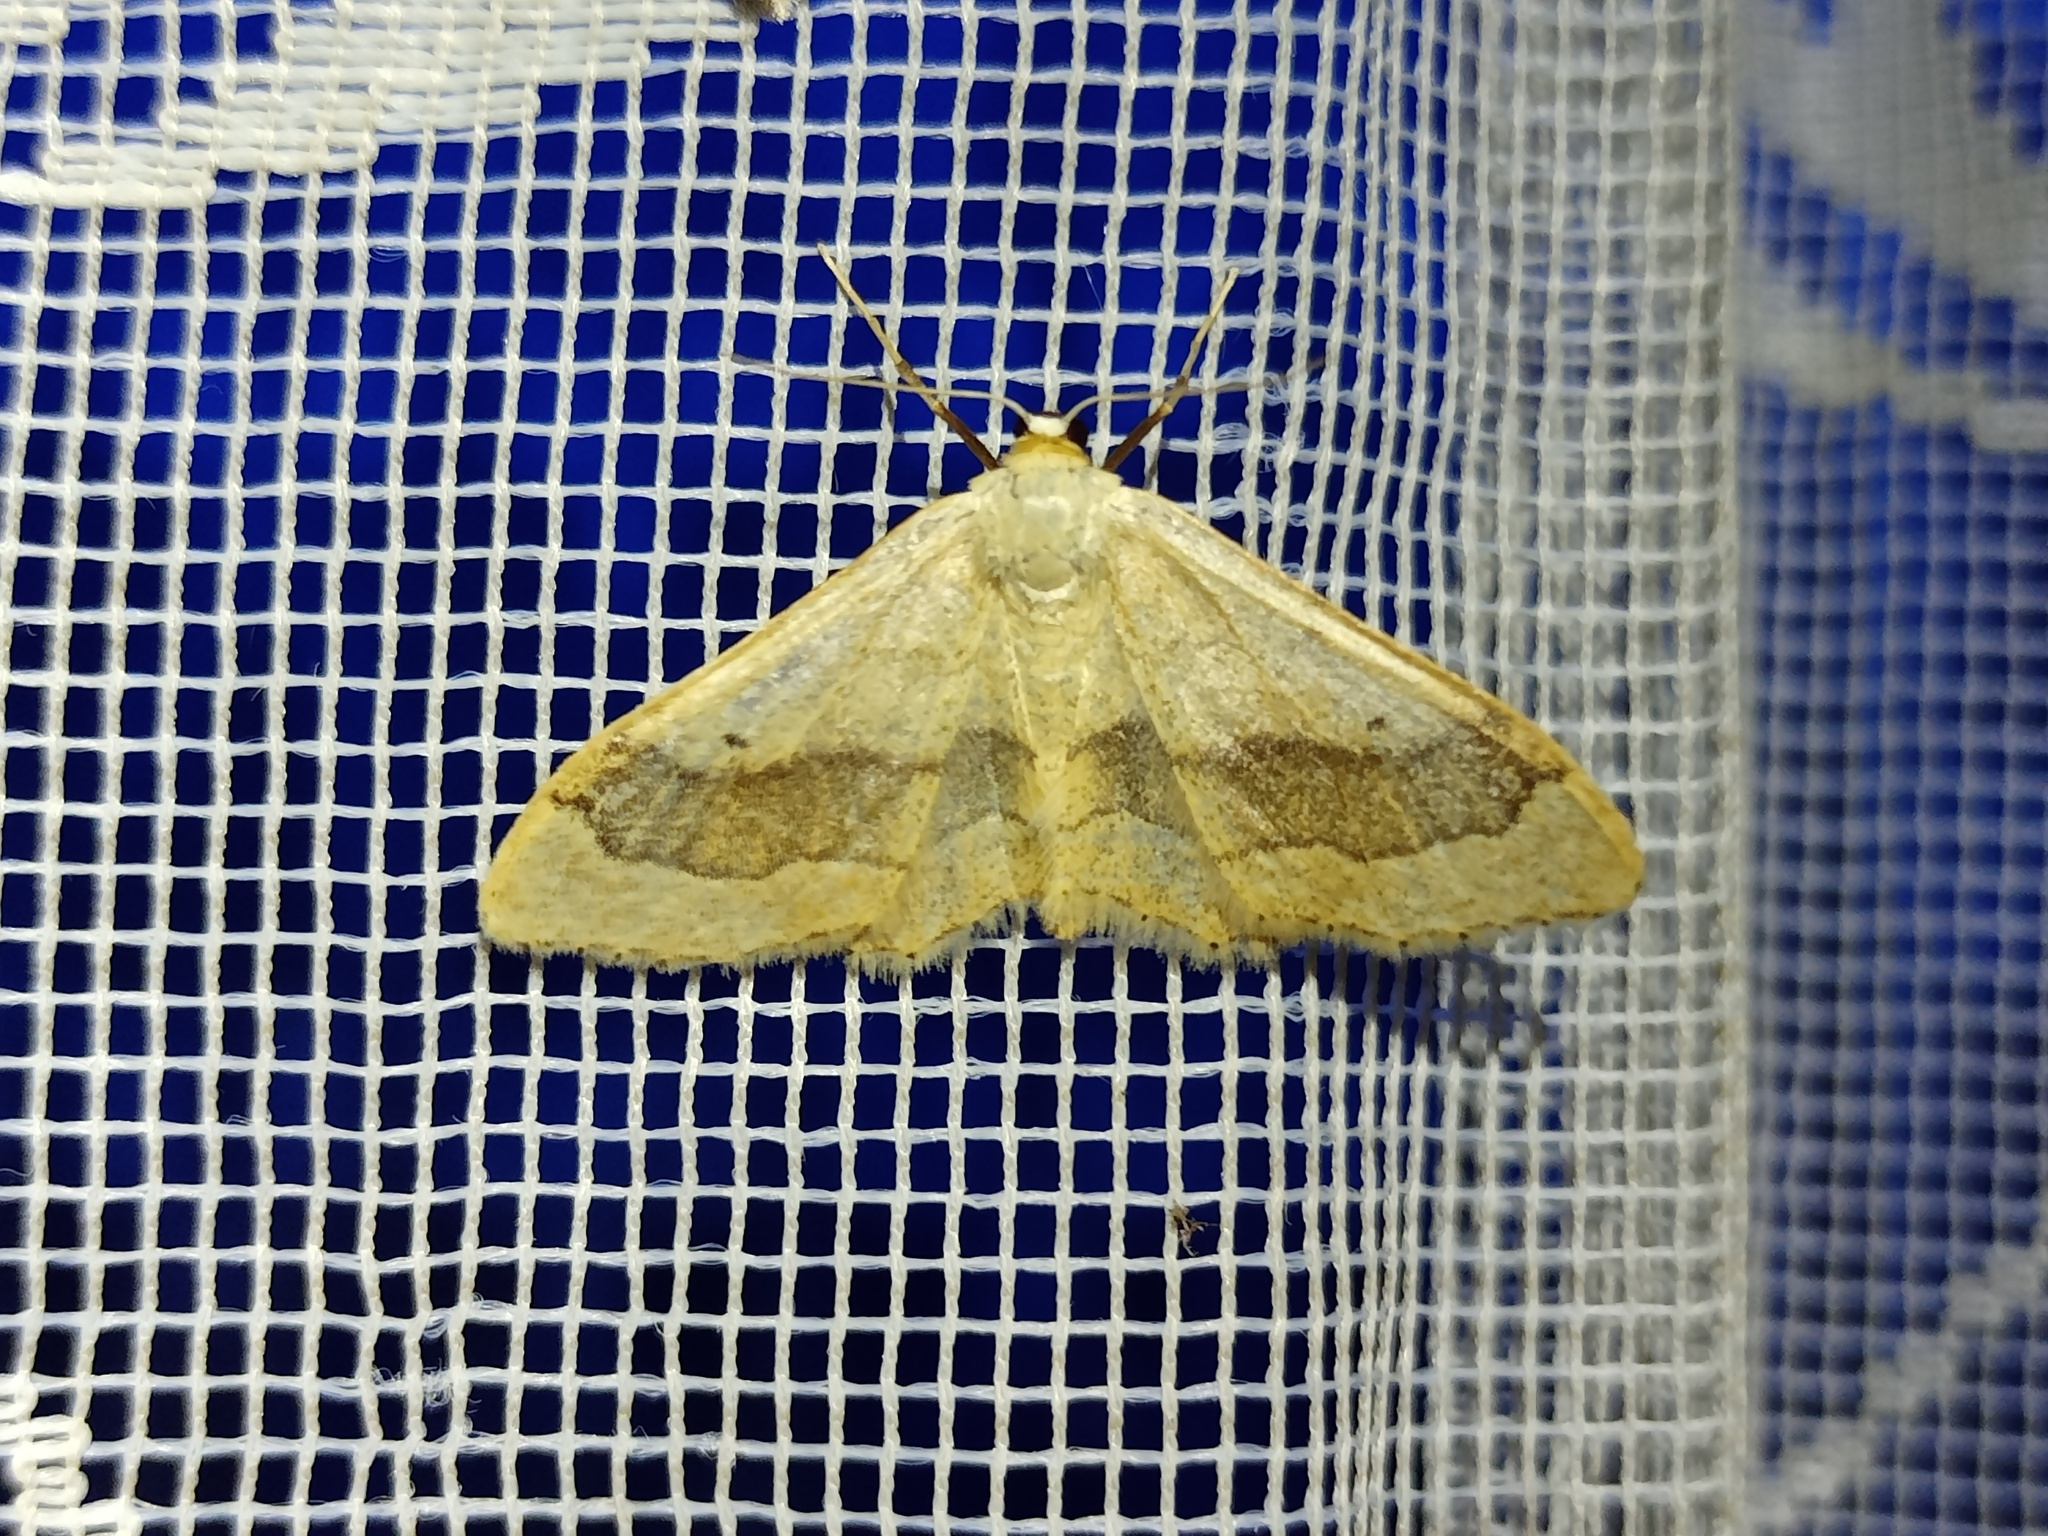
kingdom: Animalia
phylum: Arthropoda
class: Insecta
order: Lepidoptera
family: Geometridae
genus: Idaea
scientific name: Idaea aversata
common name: Riband wave
